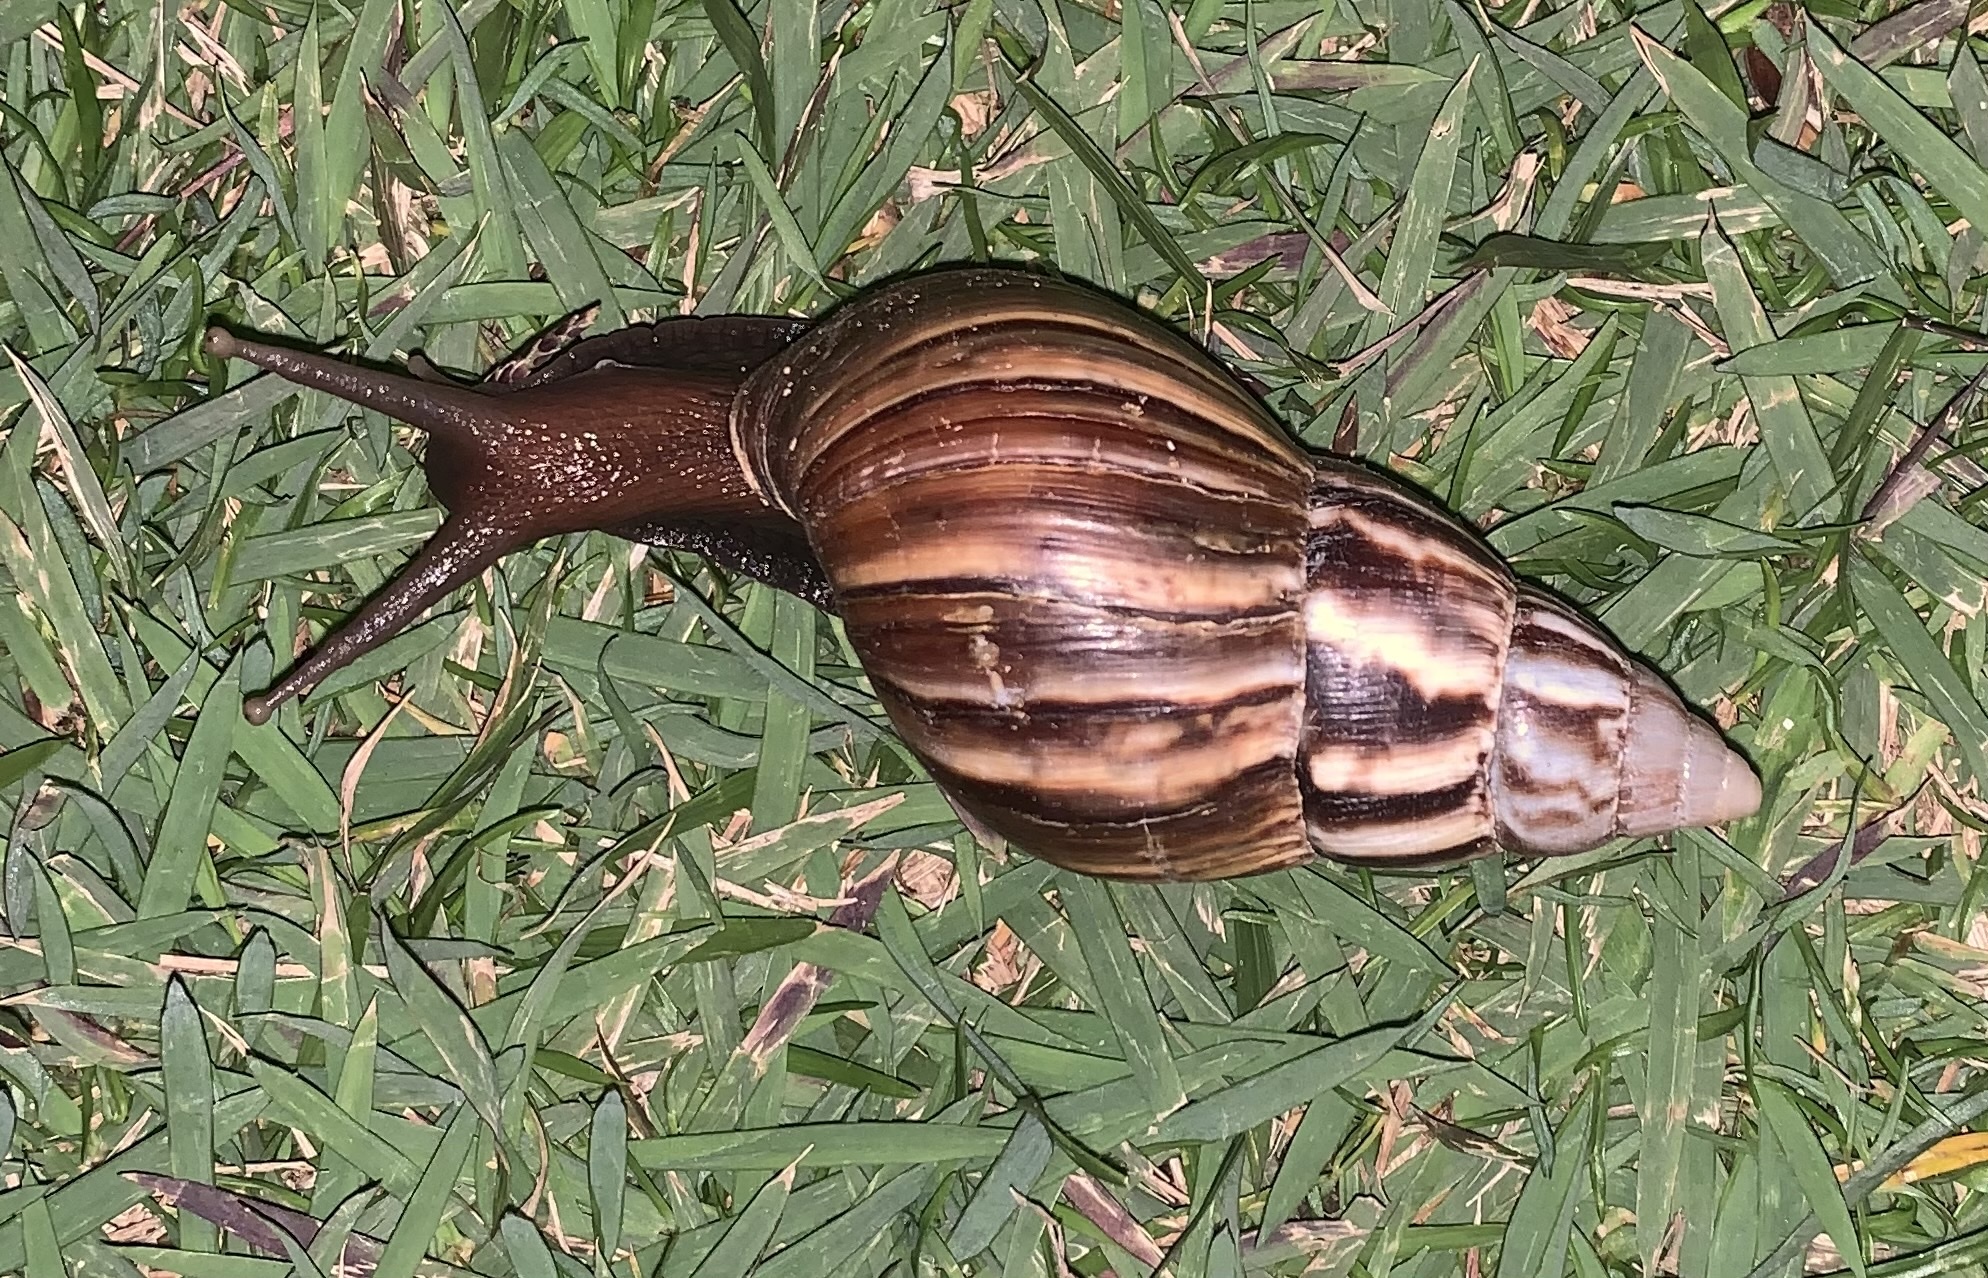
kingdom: Animalia
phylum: Mollusca
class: Gastropoda
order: Stylommatophora
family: Achatinidae
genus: Lissachatina
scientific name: Lissachatina fulica
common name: Giant african snail
